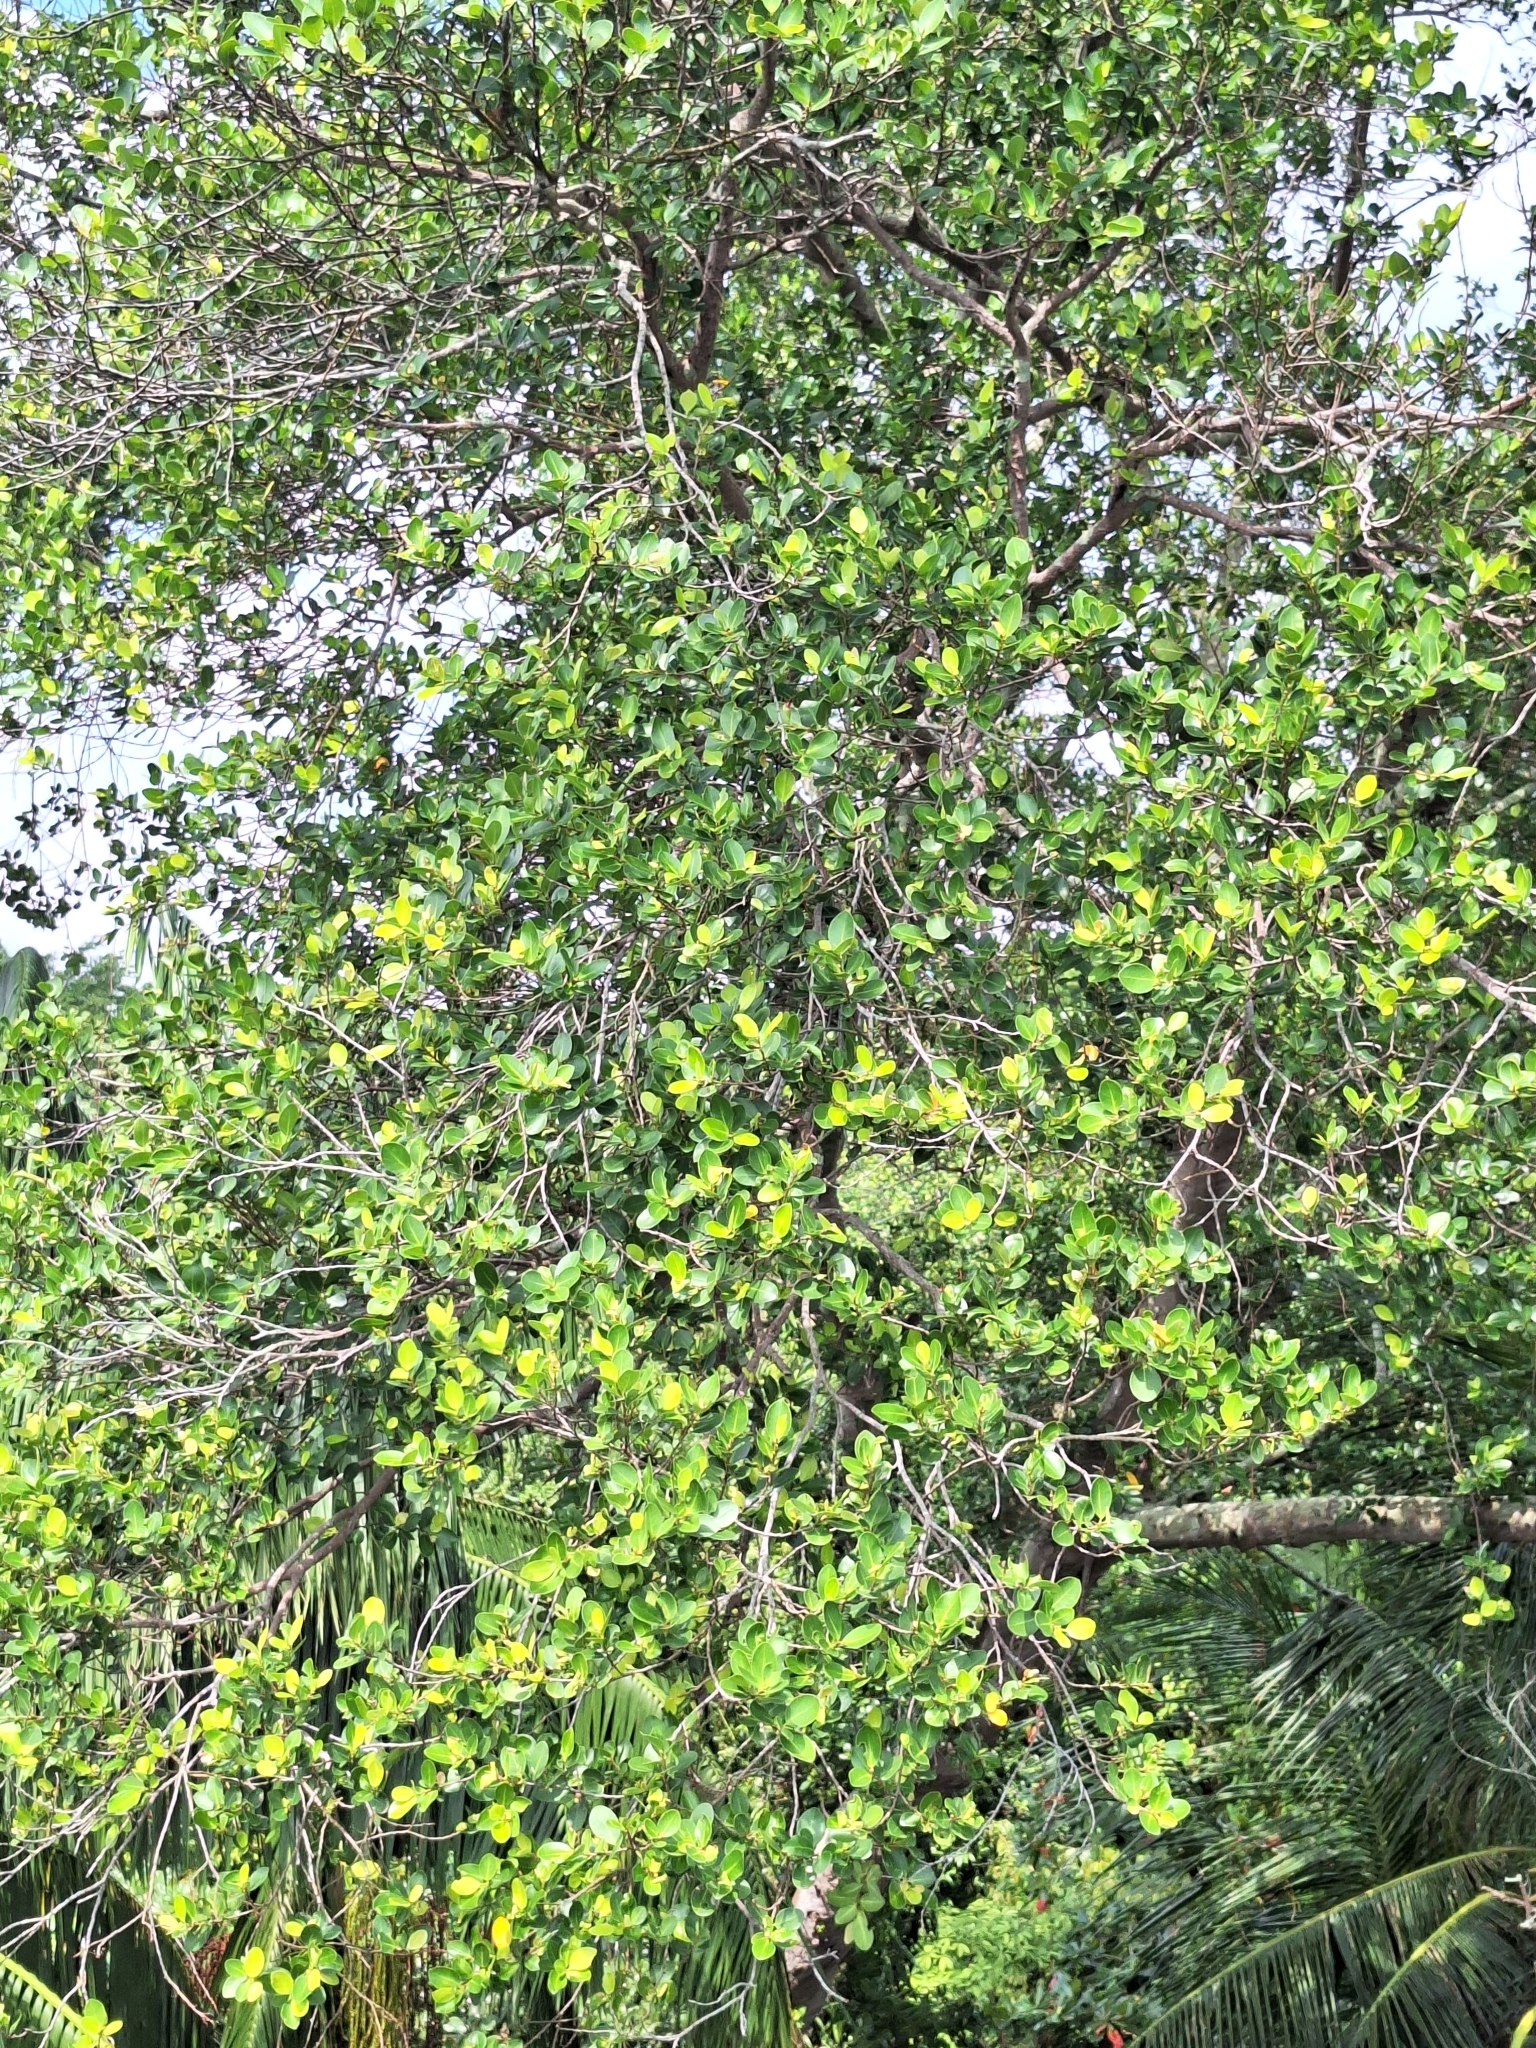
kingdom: Plantae
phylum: Tracheophyta
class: Magnoliopsida
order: Rosales
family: Moraceae
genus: Ficus
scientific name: Ficus microcarpa
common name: Chinese banyan
